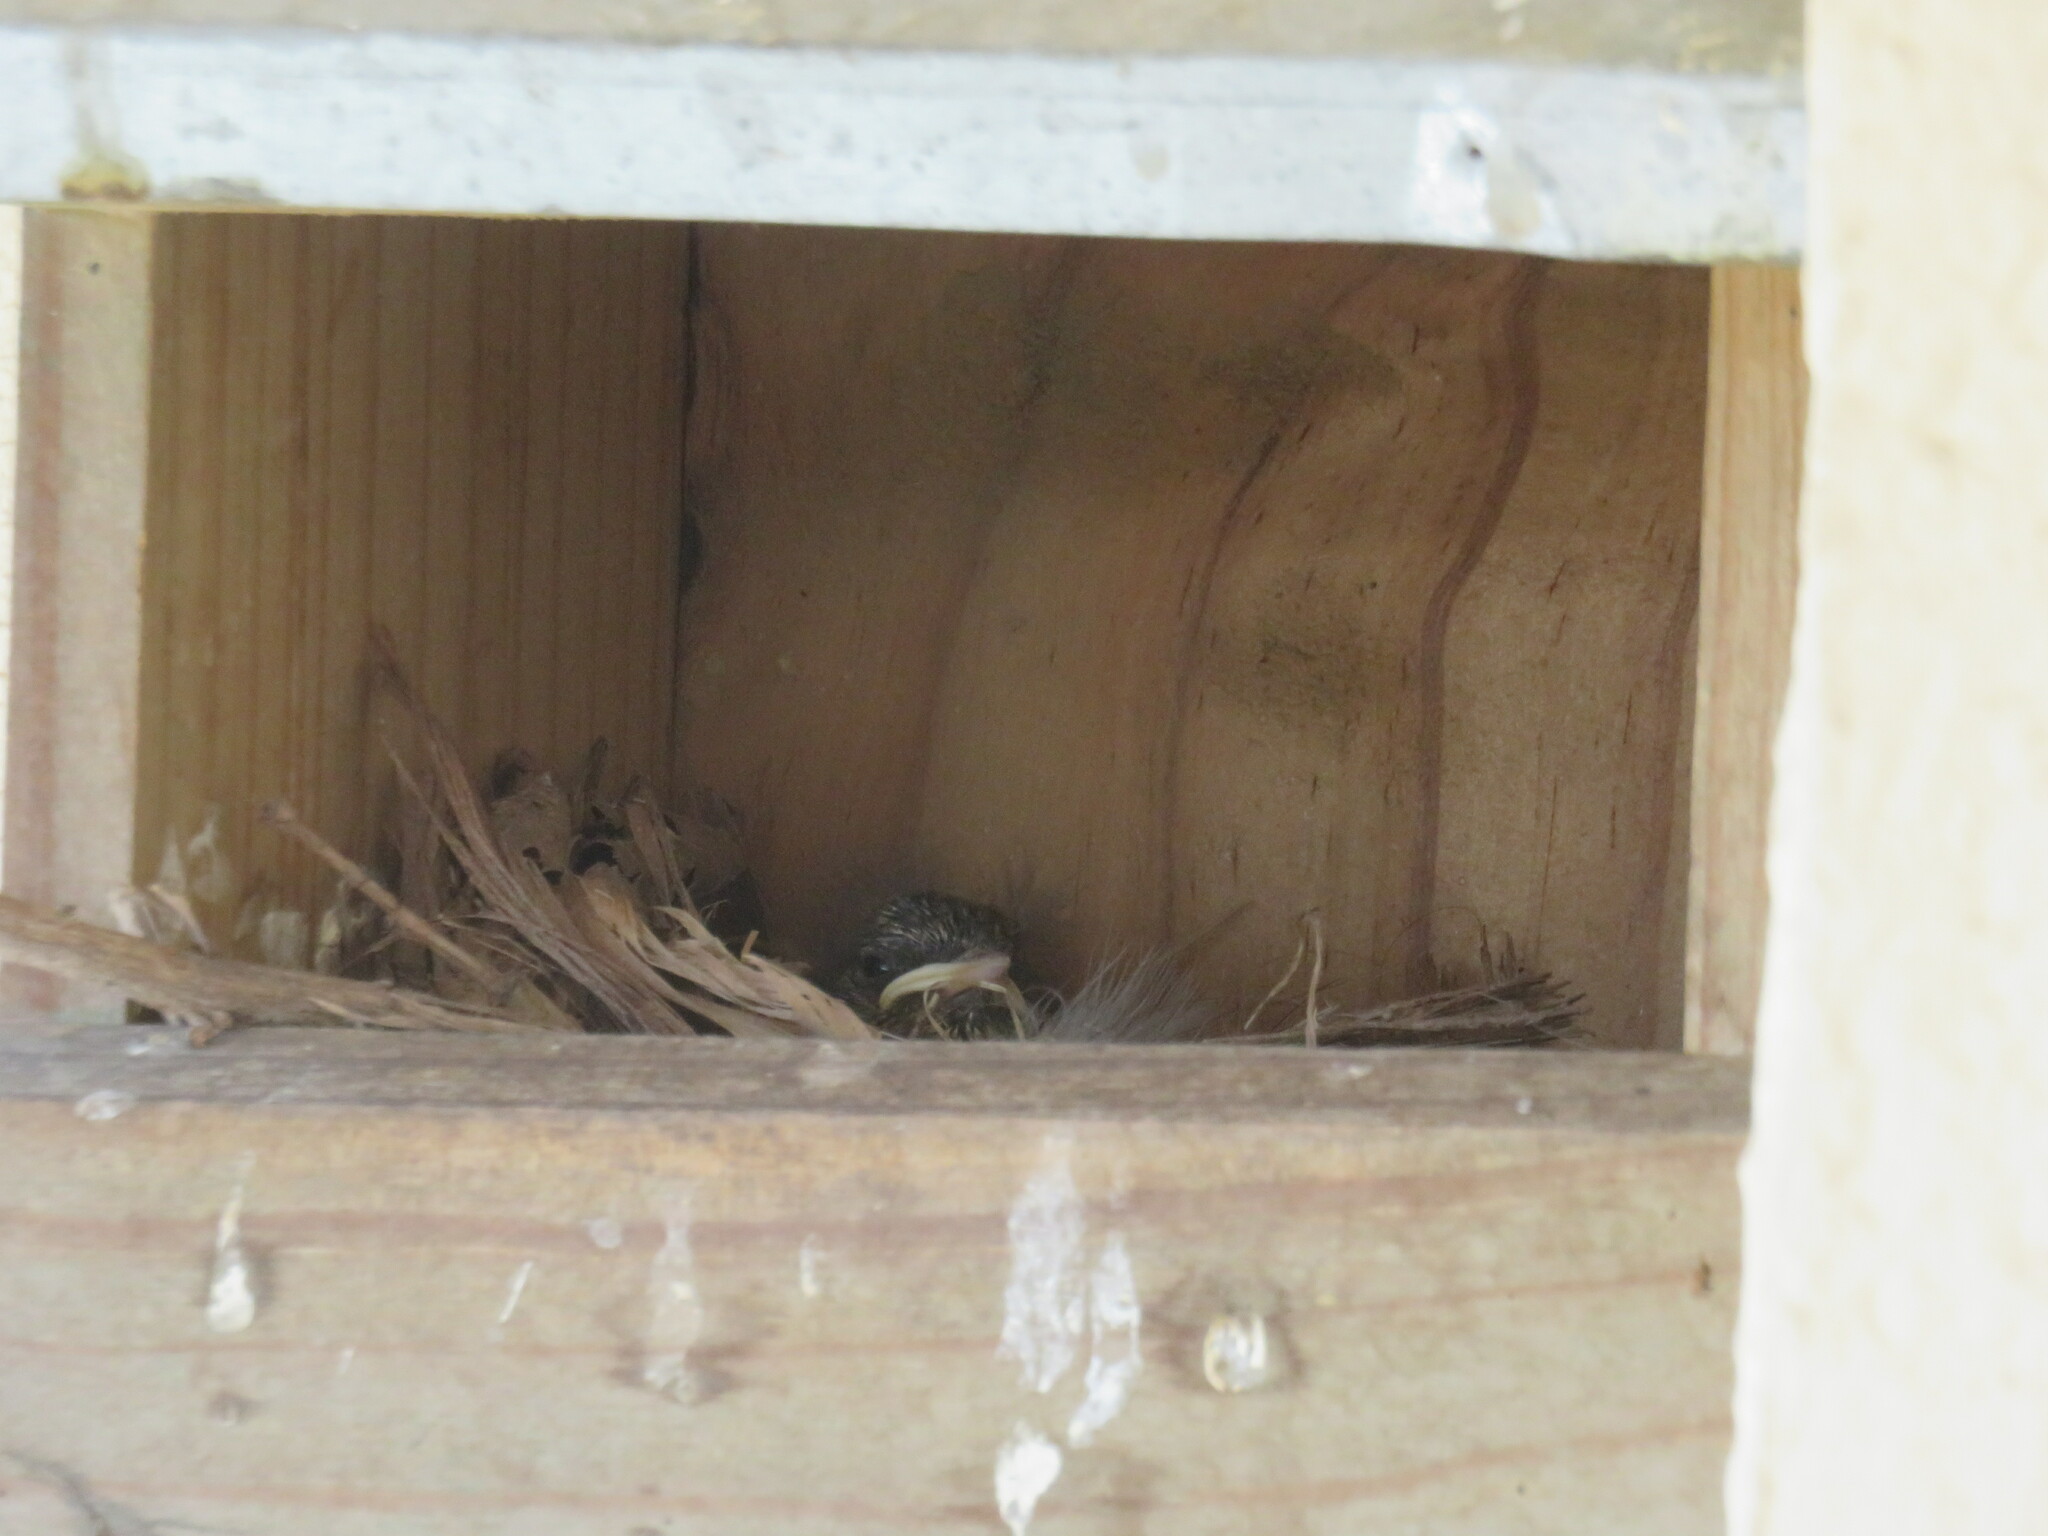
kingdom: Animalia
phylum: Chordata
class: Aves
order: Passeriformes
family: Muscicapidae
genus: Phoenicurus
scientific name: Phoenicurus phoenicurus
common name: Common redstart
